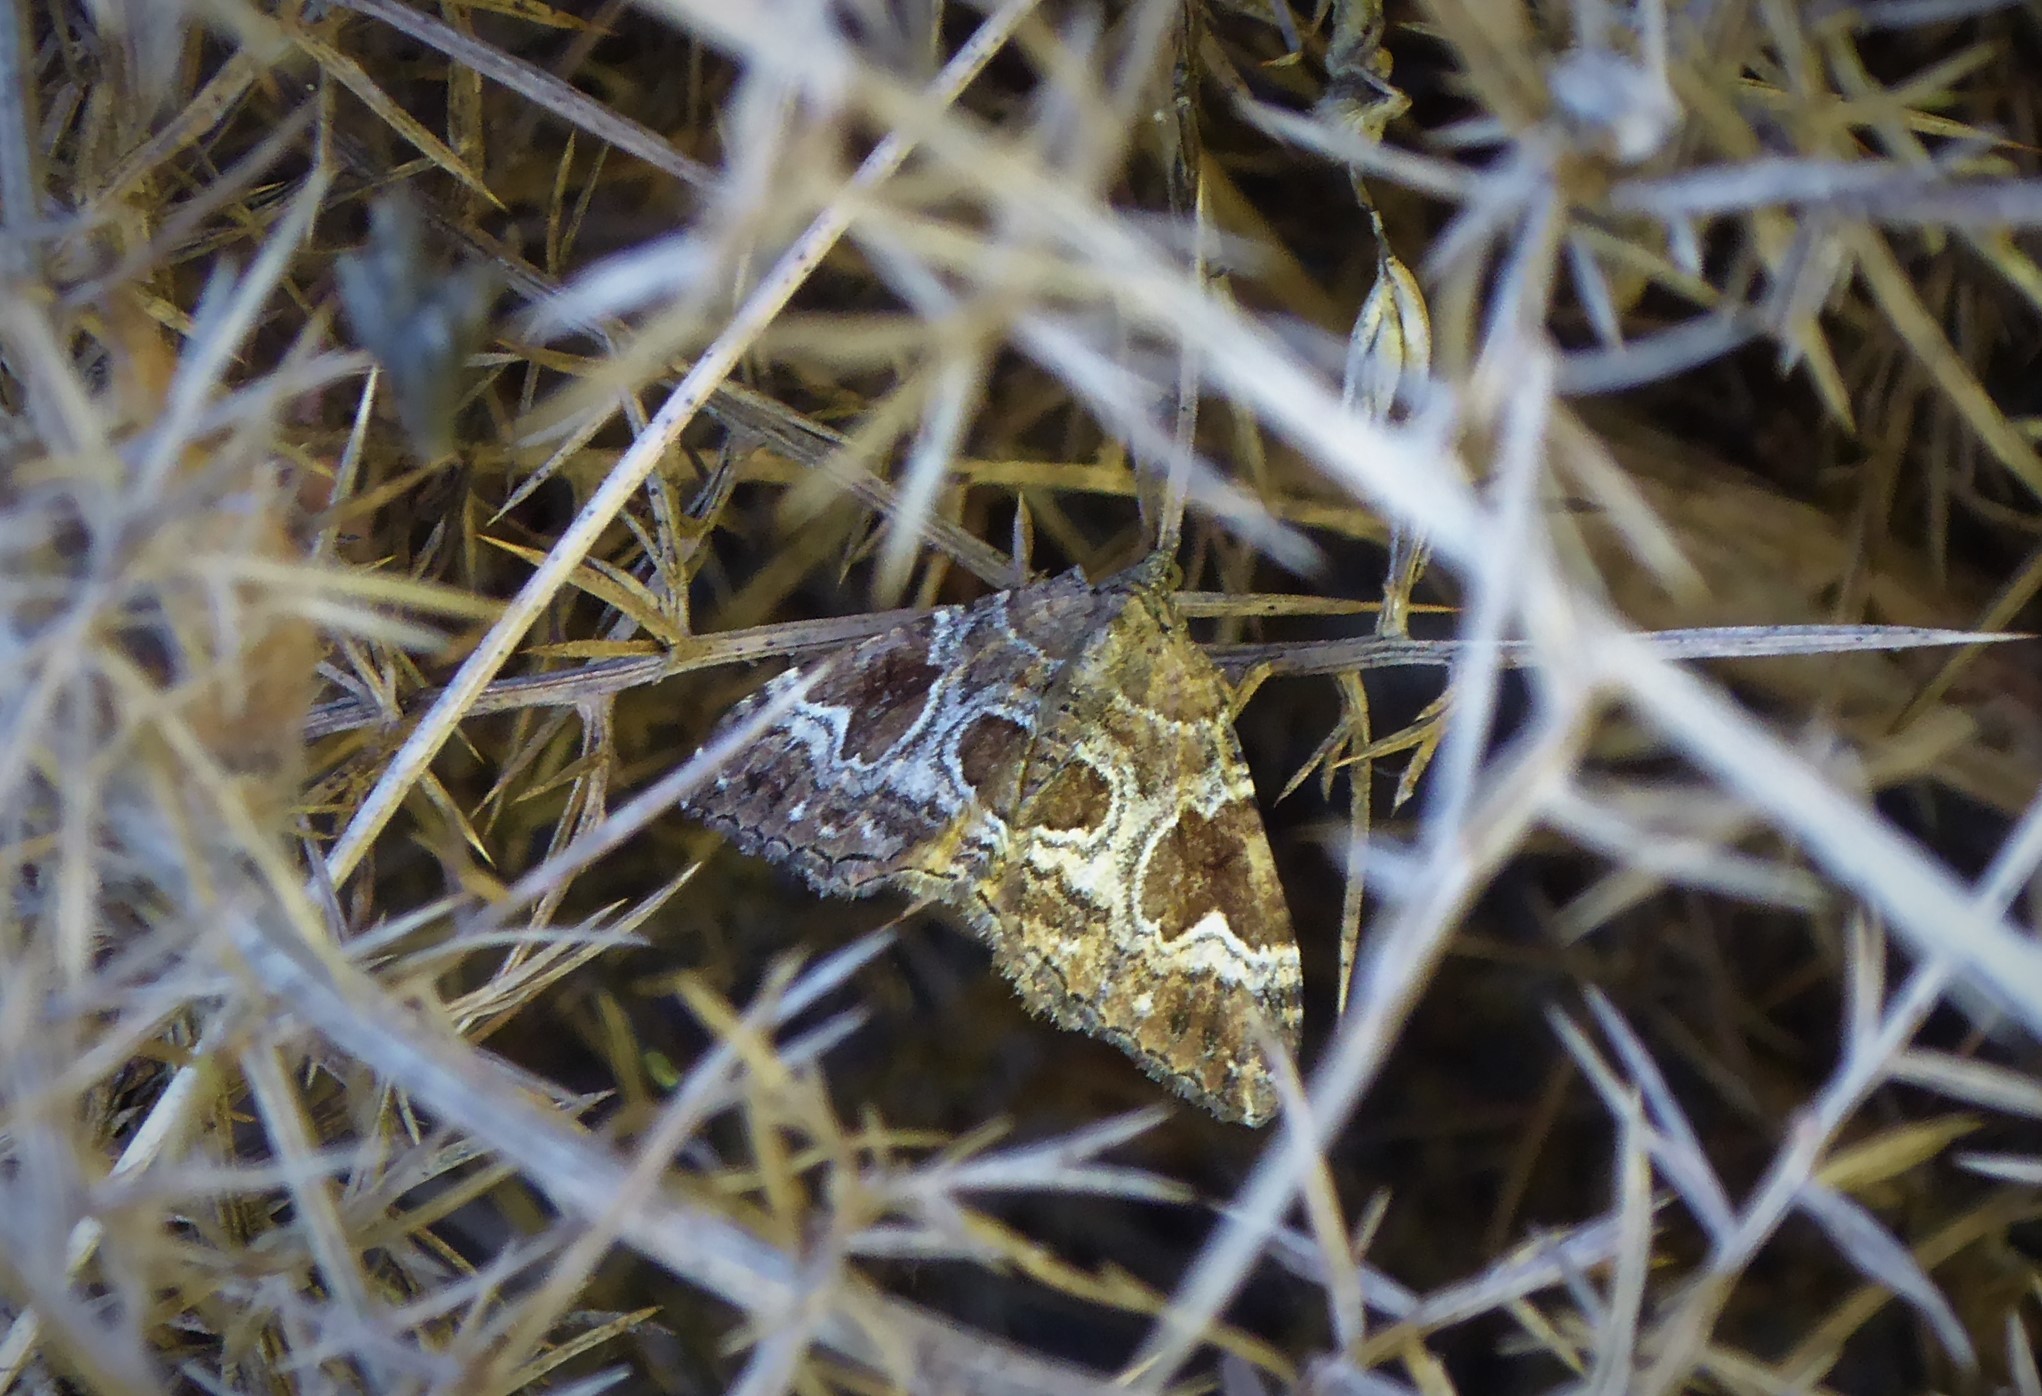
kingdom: Animalia
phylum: Arthropoda
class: Insecta
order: Lepidoptera
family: Geometridae
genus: Hydriomena
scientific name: Hydriomena deltoidata
